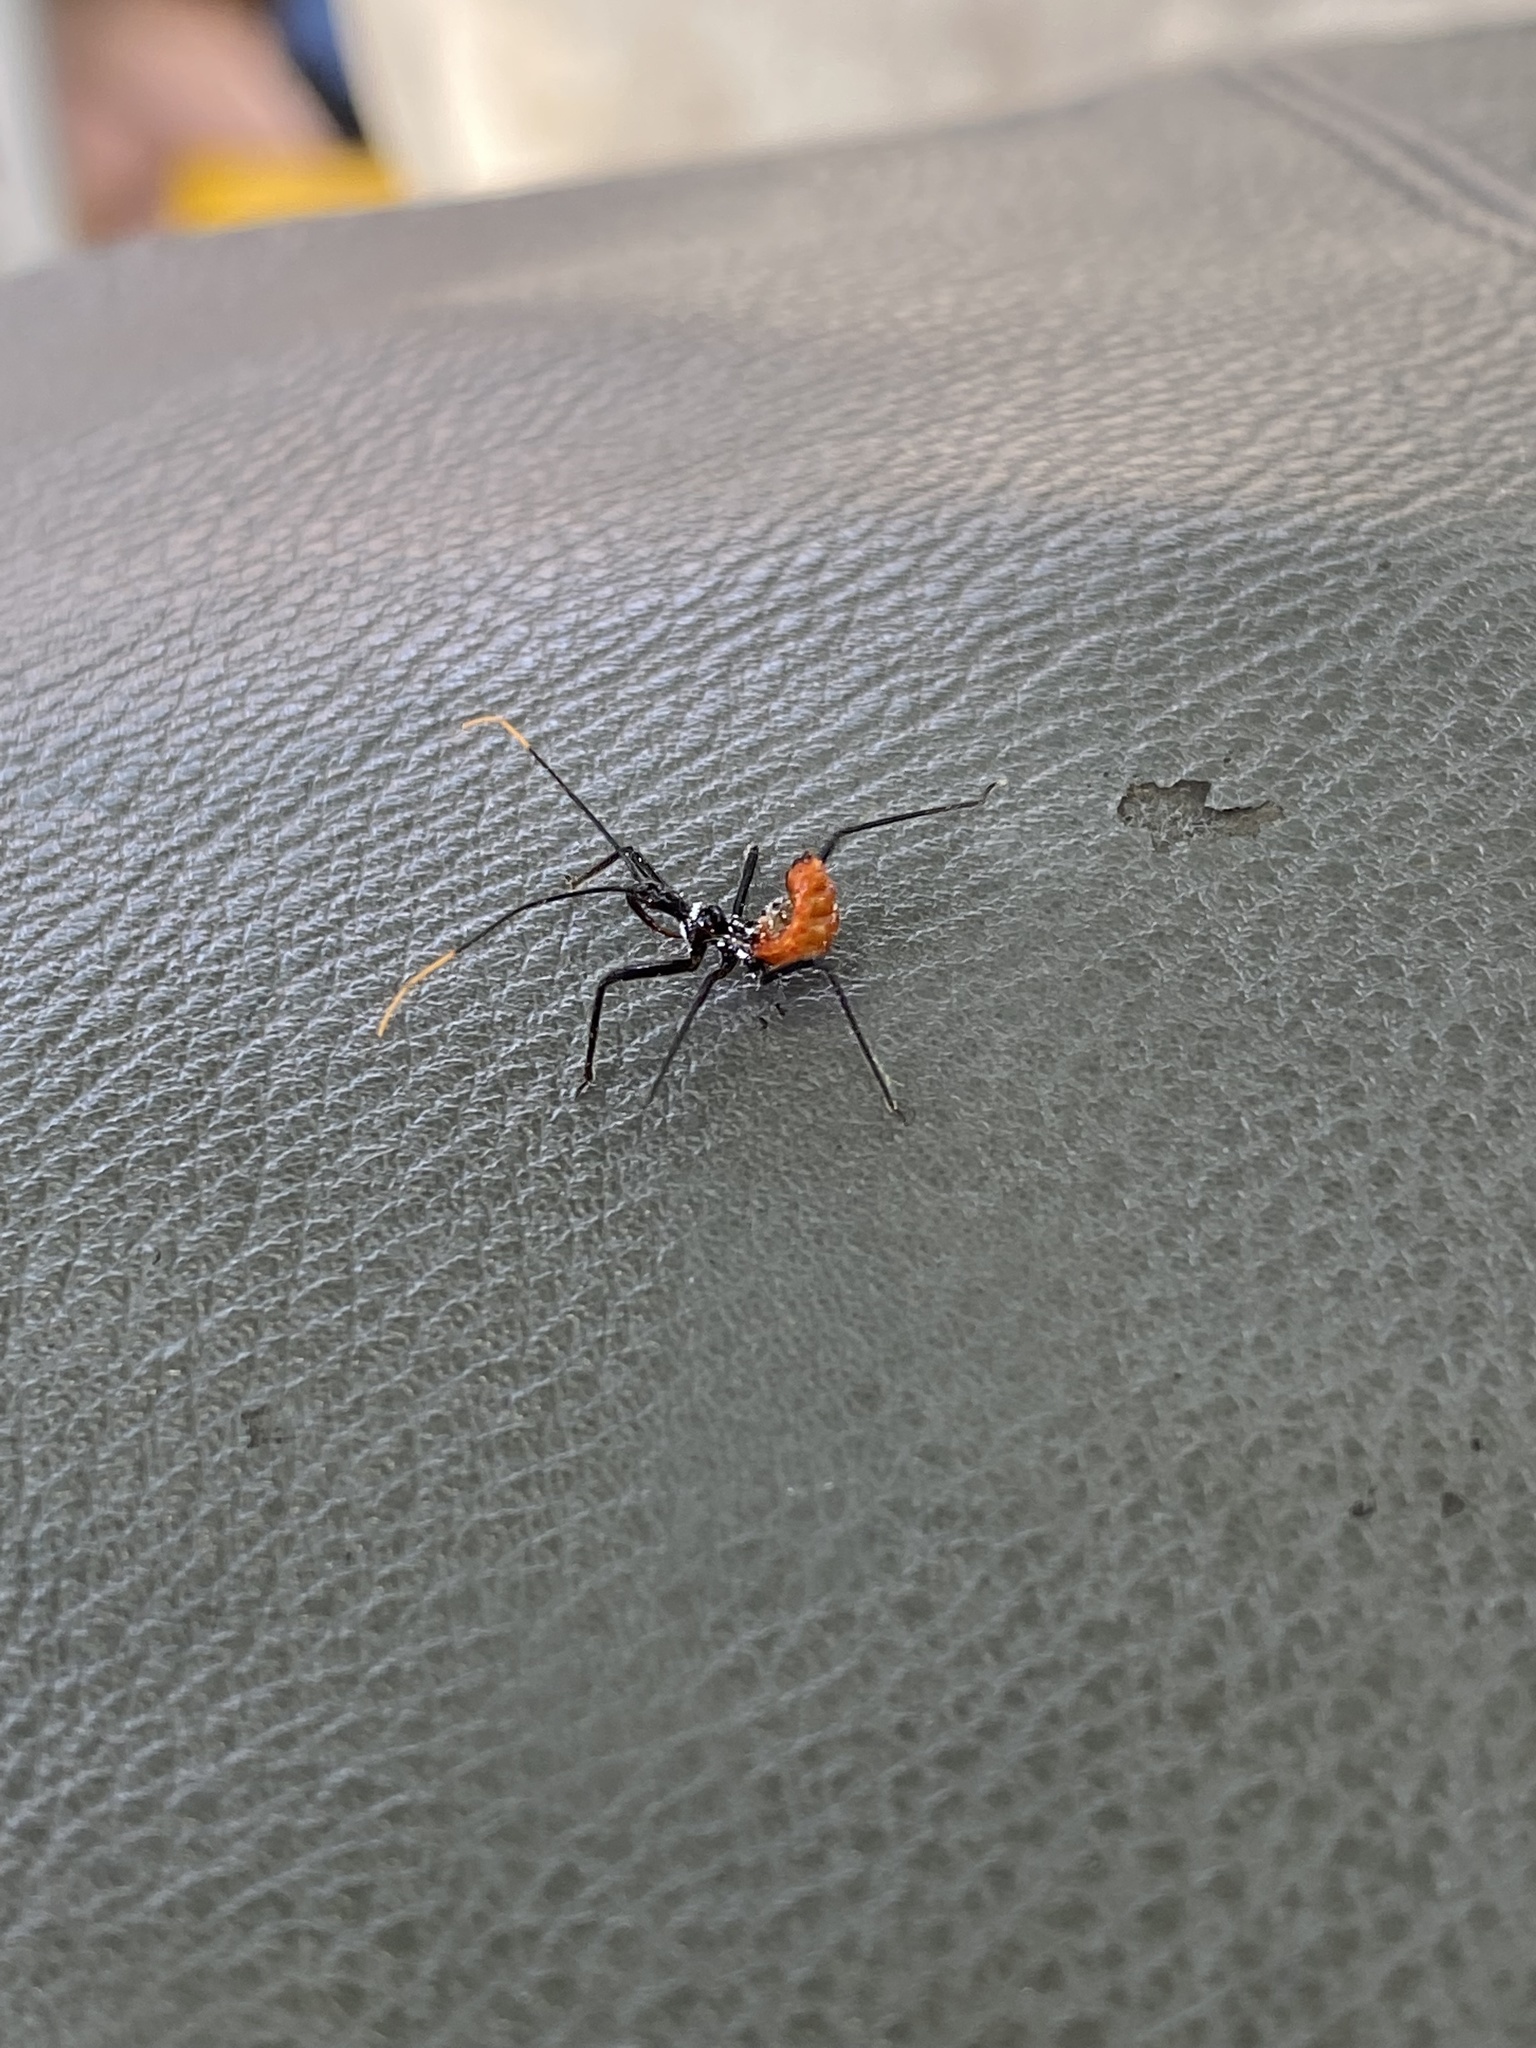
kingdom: Animalia
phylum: Arthropoda
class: Insecta
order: Hemiptera
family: Reduviidae
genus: Arilus
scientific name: Arilus cristatus
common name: North american wheel bug
